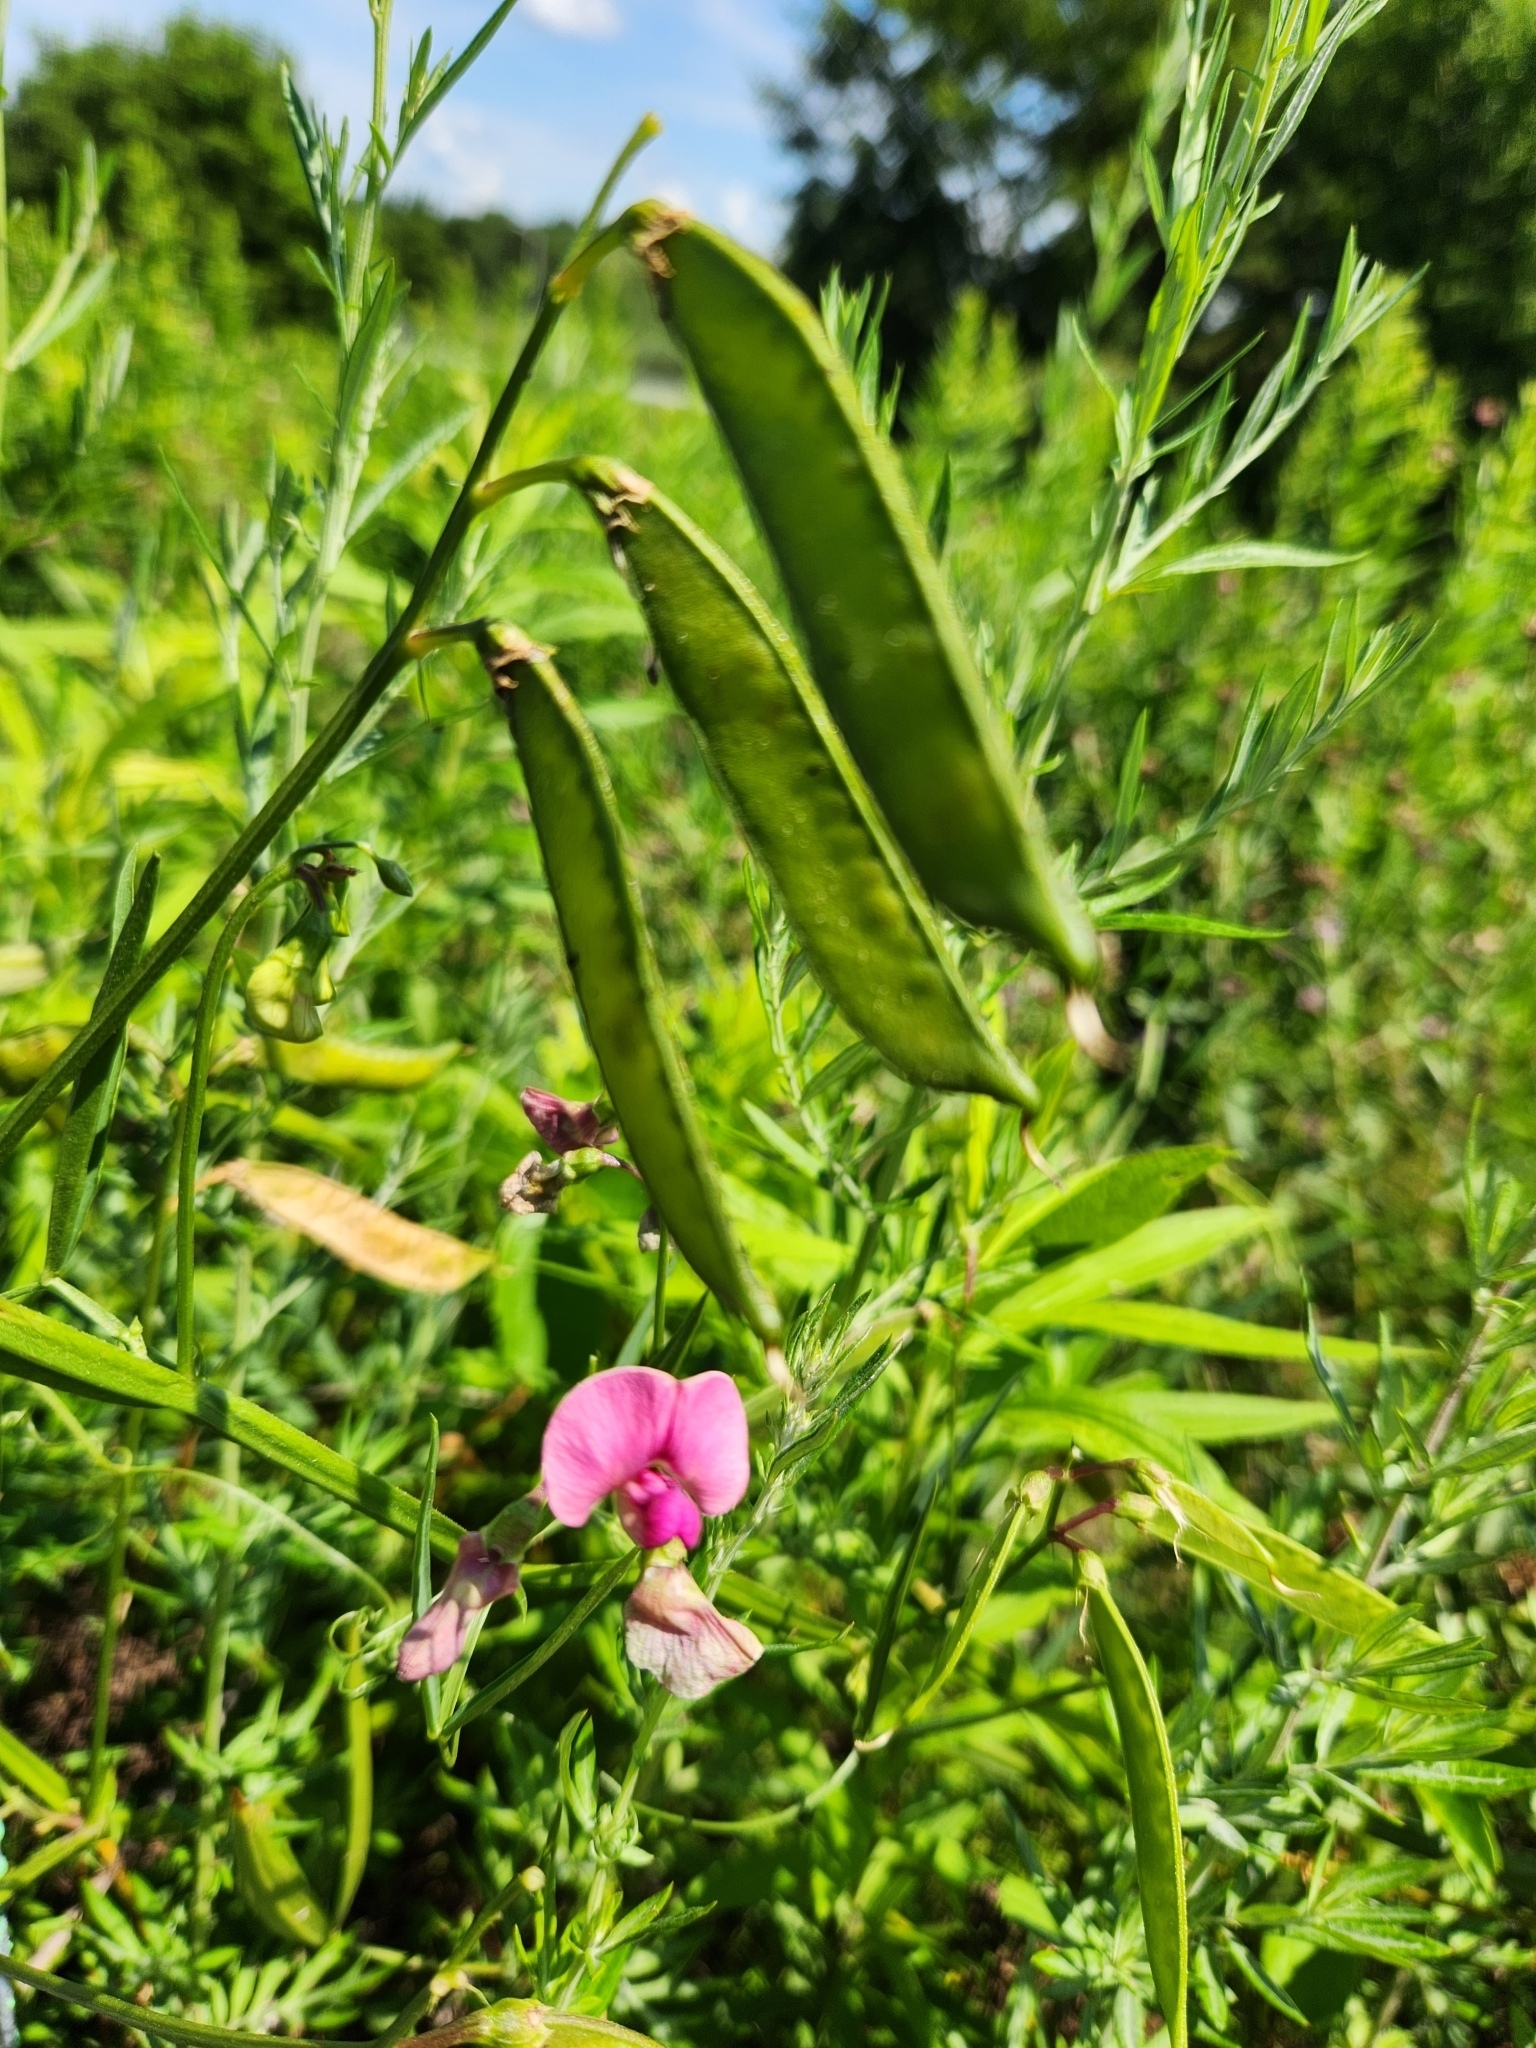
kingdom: Plantae
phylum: Tracheophyta
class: Magnoliopsida
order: Fabales
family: Fabaceae
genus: Lathyrus
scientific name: Lathyrus sylvestris
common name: Flat pea
